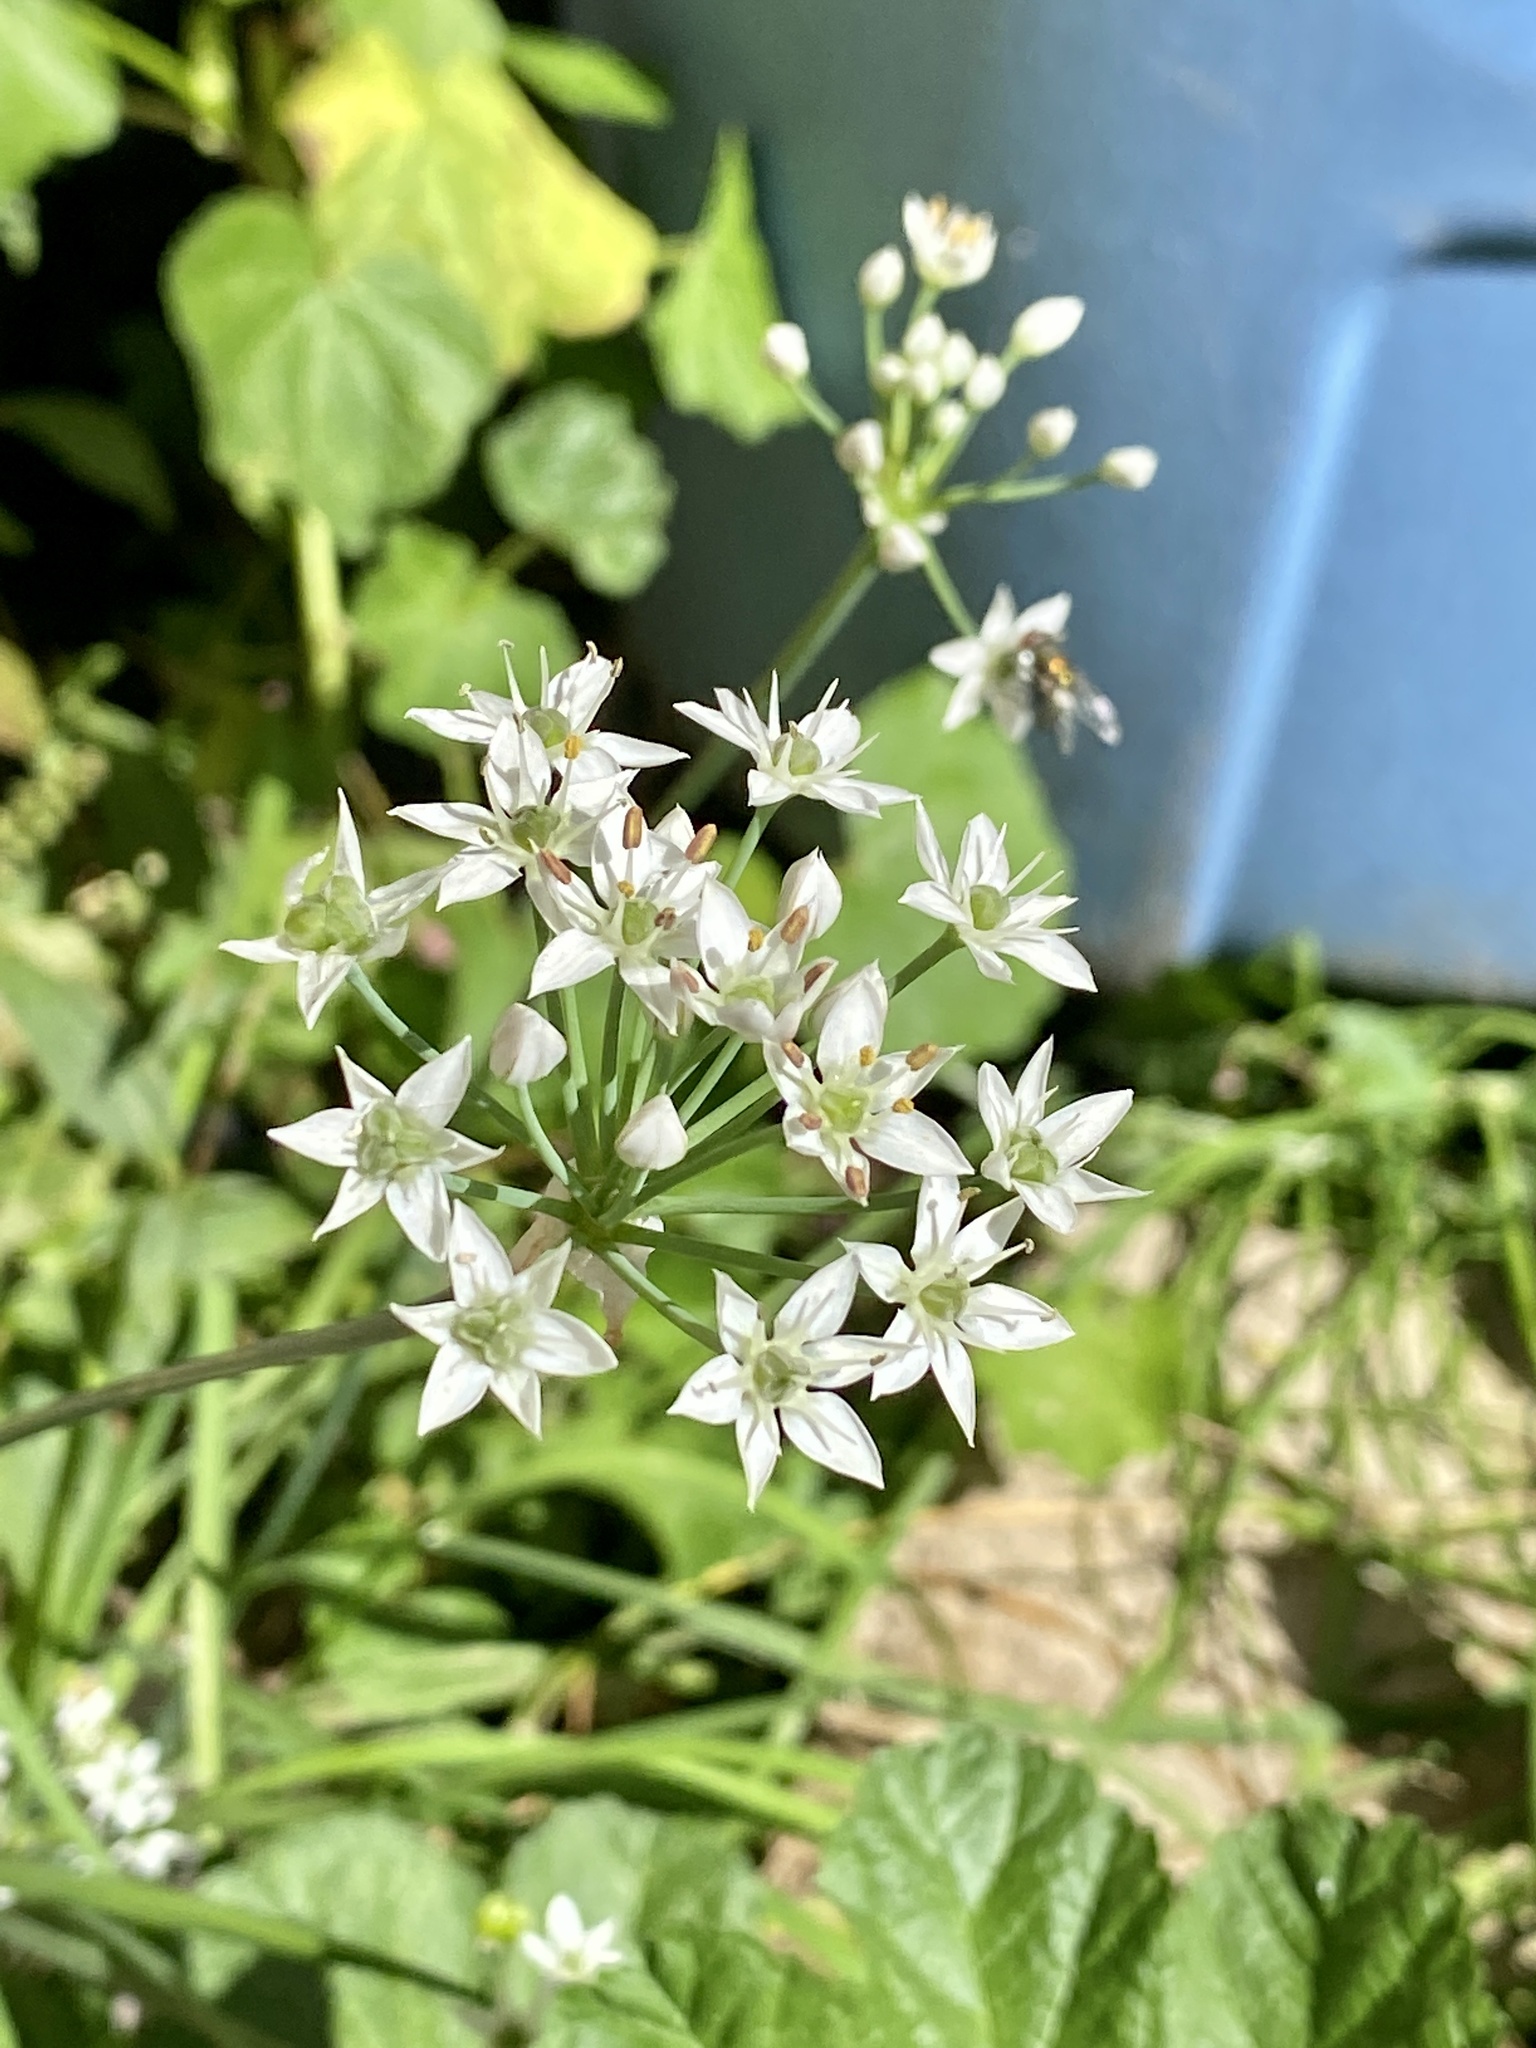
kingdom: Plantae
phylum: Tracheophyta
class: Liliopsida
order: Asparagales
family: Amaryllidaceae
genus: Allium
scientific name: Allium tuberosum
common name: Chinese chives
